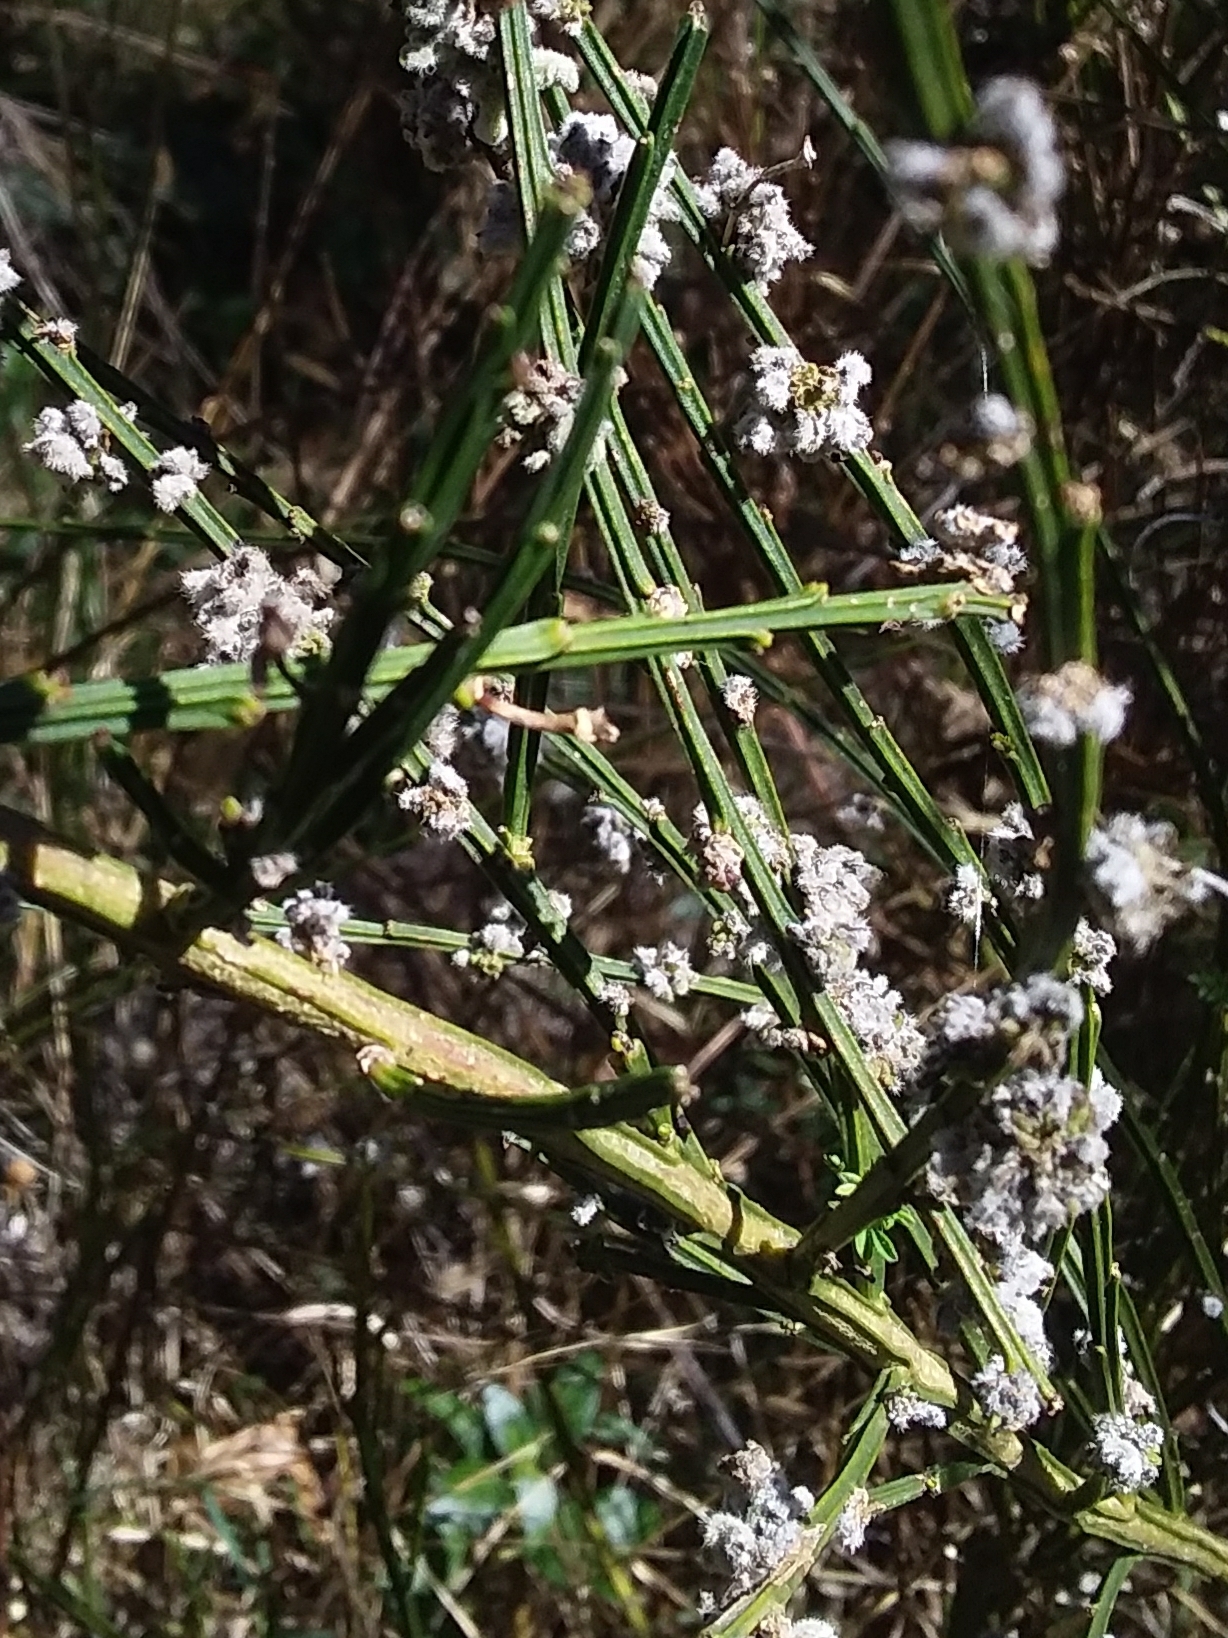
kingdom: Animalia
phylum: Arthropoda
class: Arachnida
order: Trombidiformes
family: Eriophyidae
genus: Aceria
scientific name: Aceria genistae
